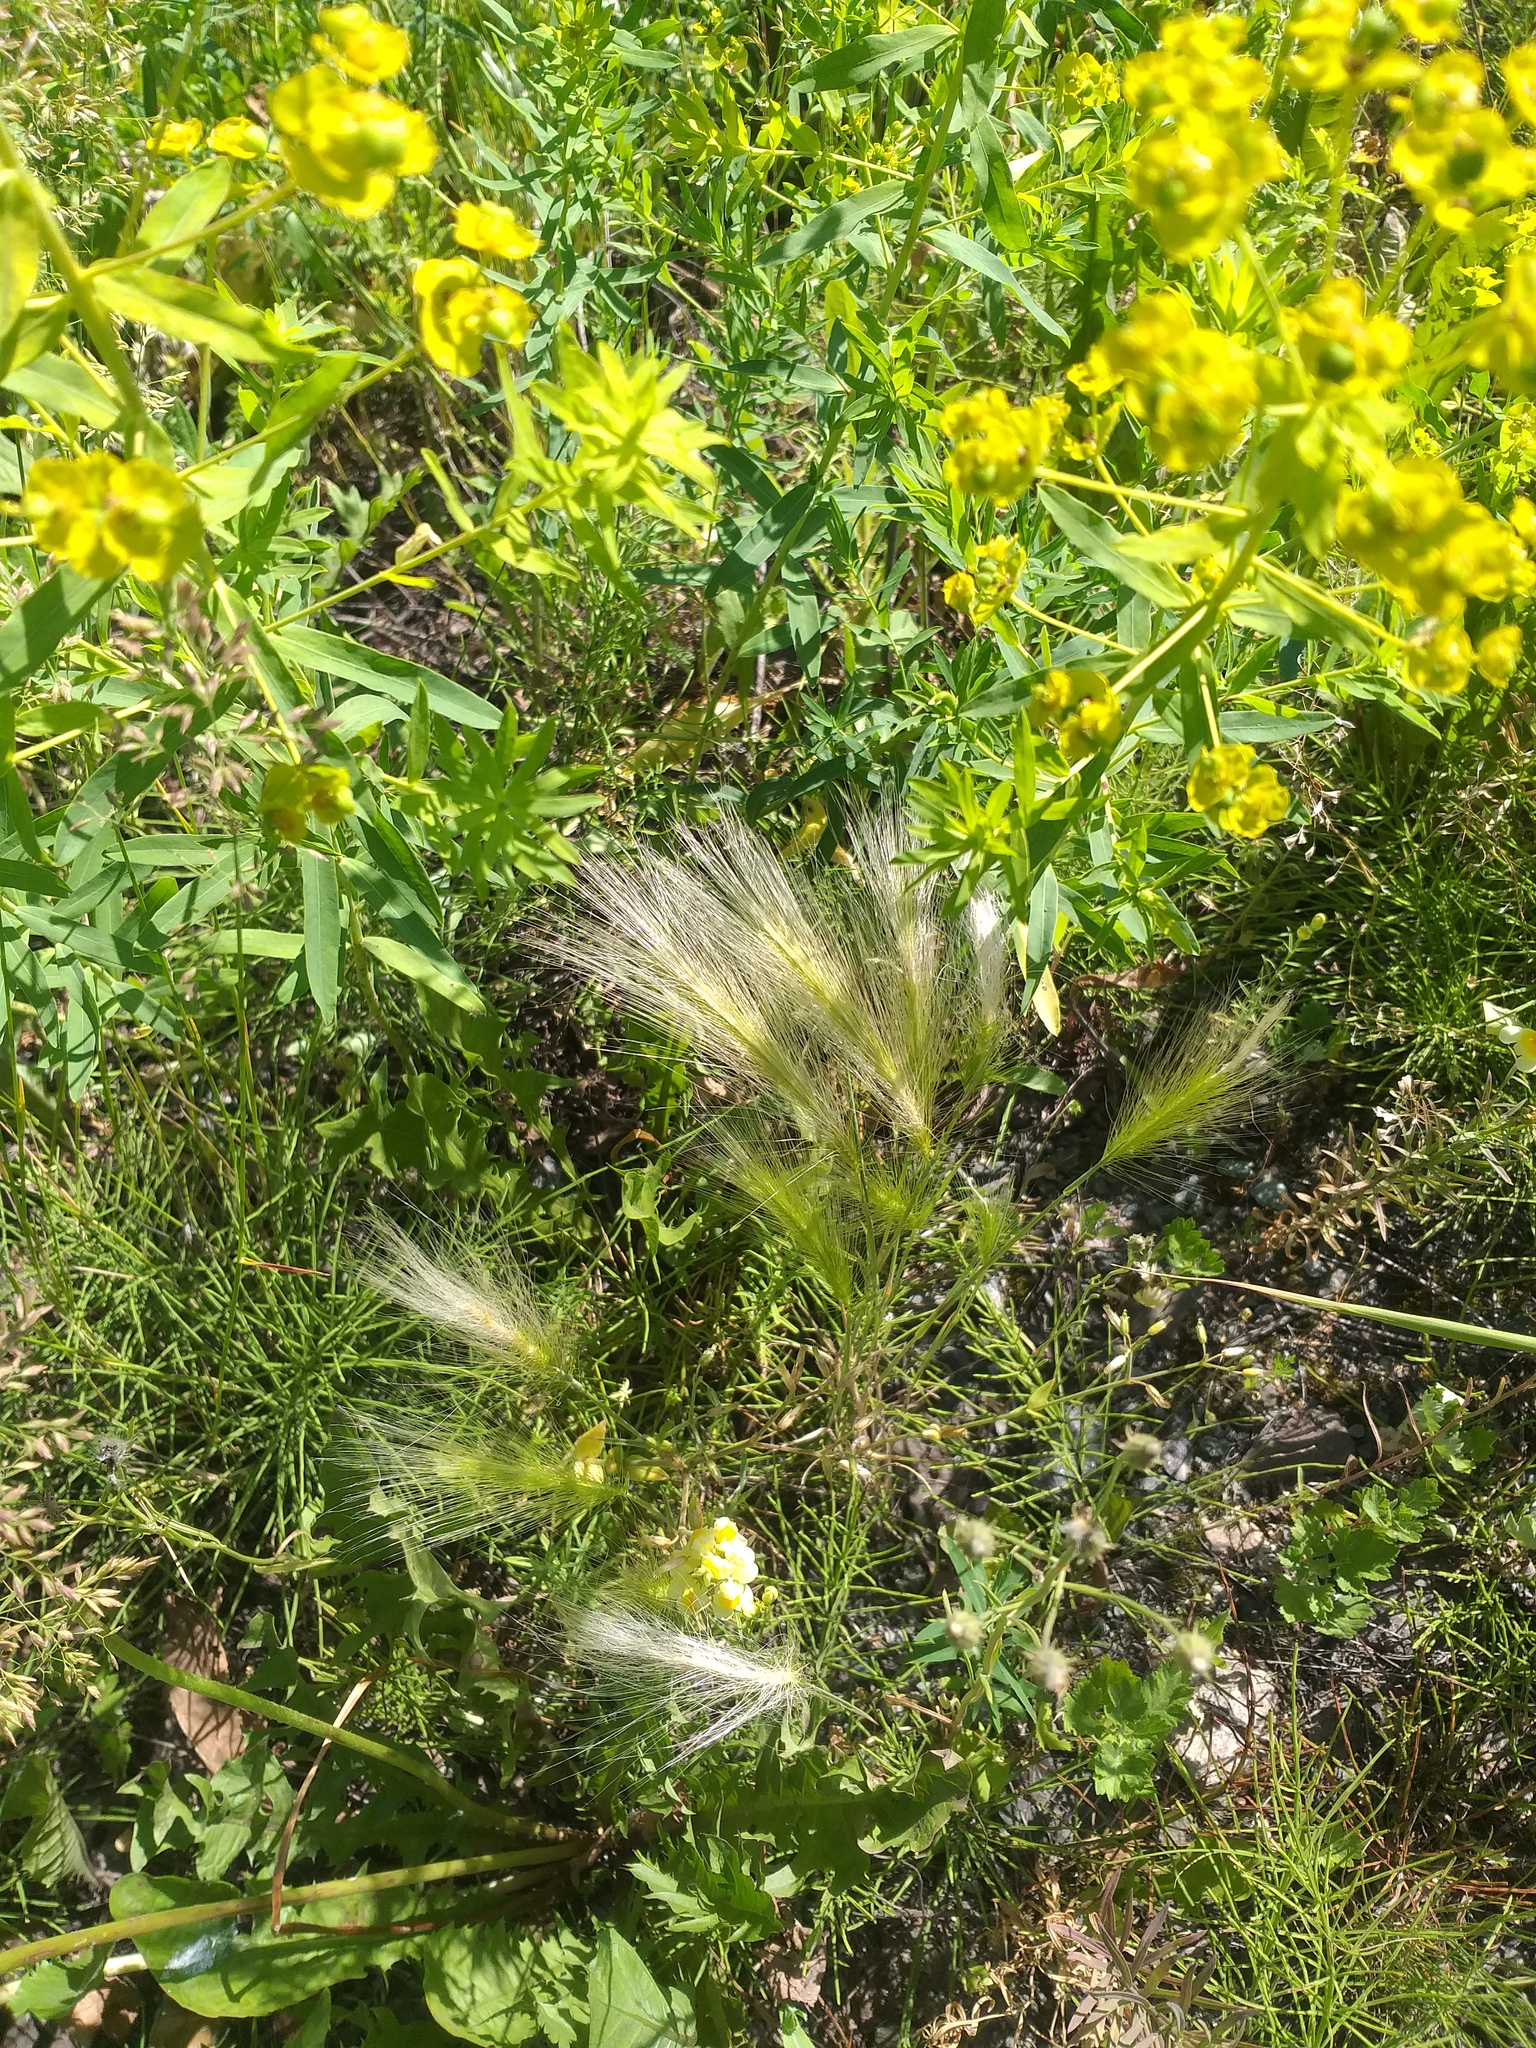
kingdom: Plantae
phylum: Tracheophyta
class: Liliopsida
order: Poales
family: Poaceae
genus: Hordeum
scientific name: Hordeum jubatum
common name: Foxtail barley
